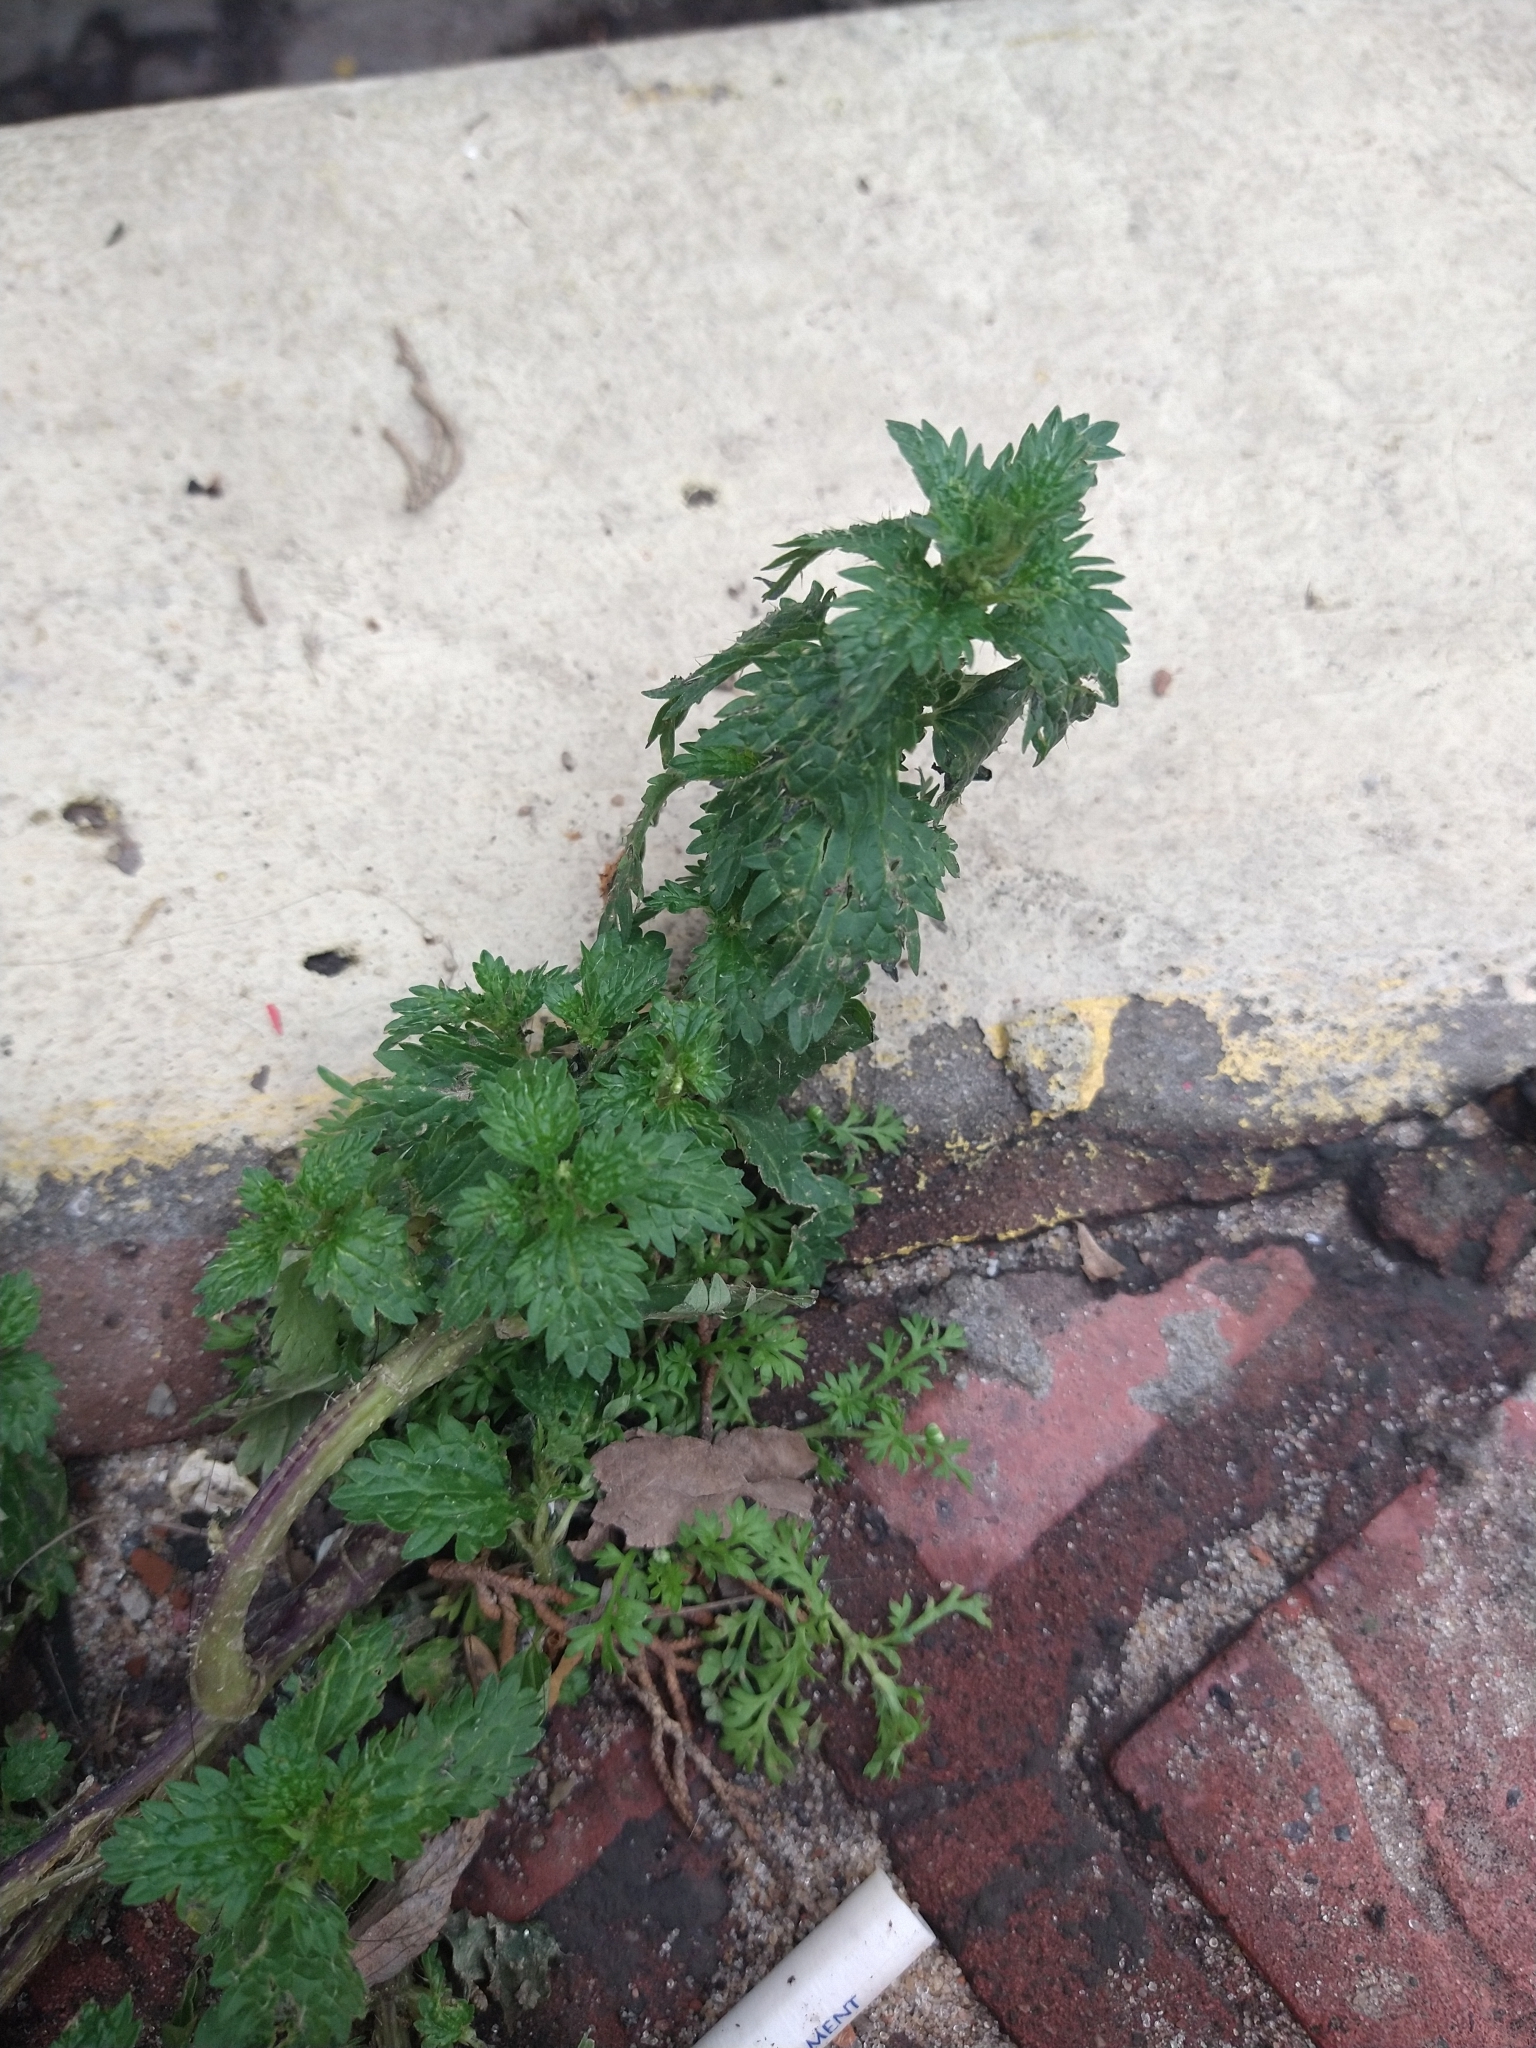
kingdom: Plantae
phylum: Tracheophyta
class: Magnoliopsida
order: Rosales
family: Urticaceae
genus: Urtica
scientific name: Urtica urens
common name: Dwarf nettle
